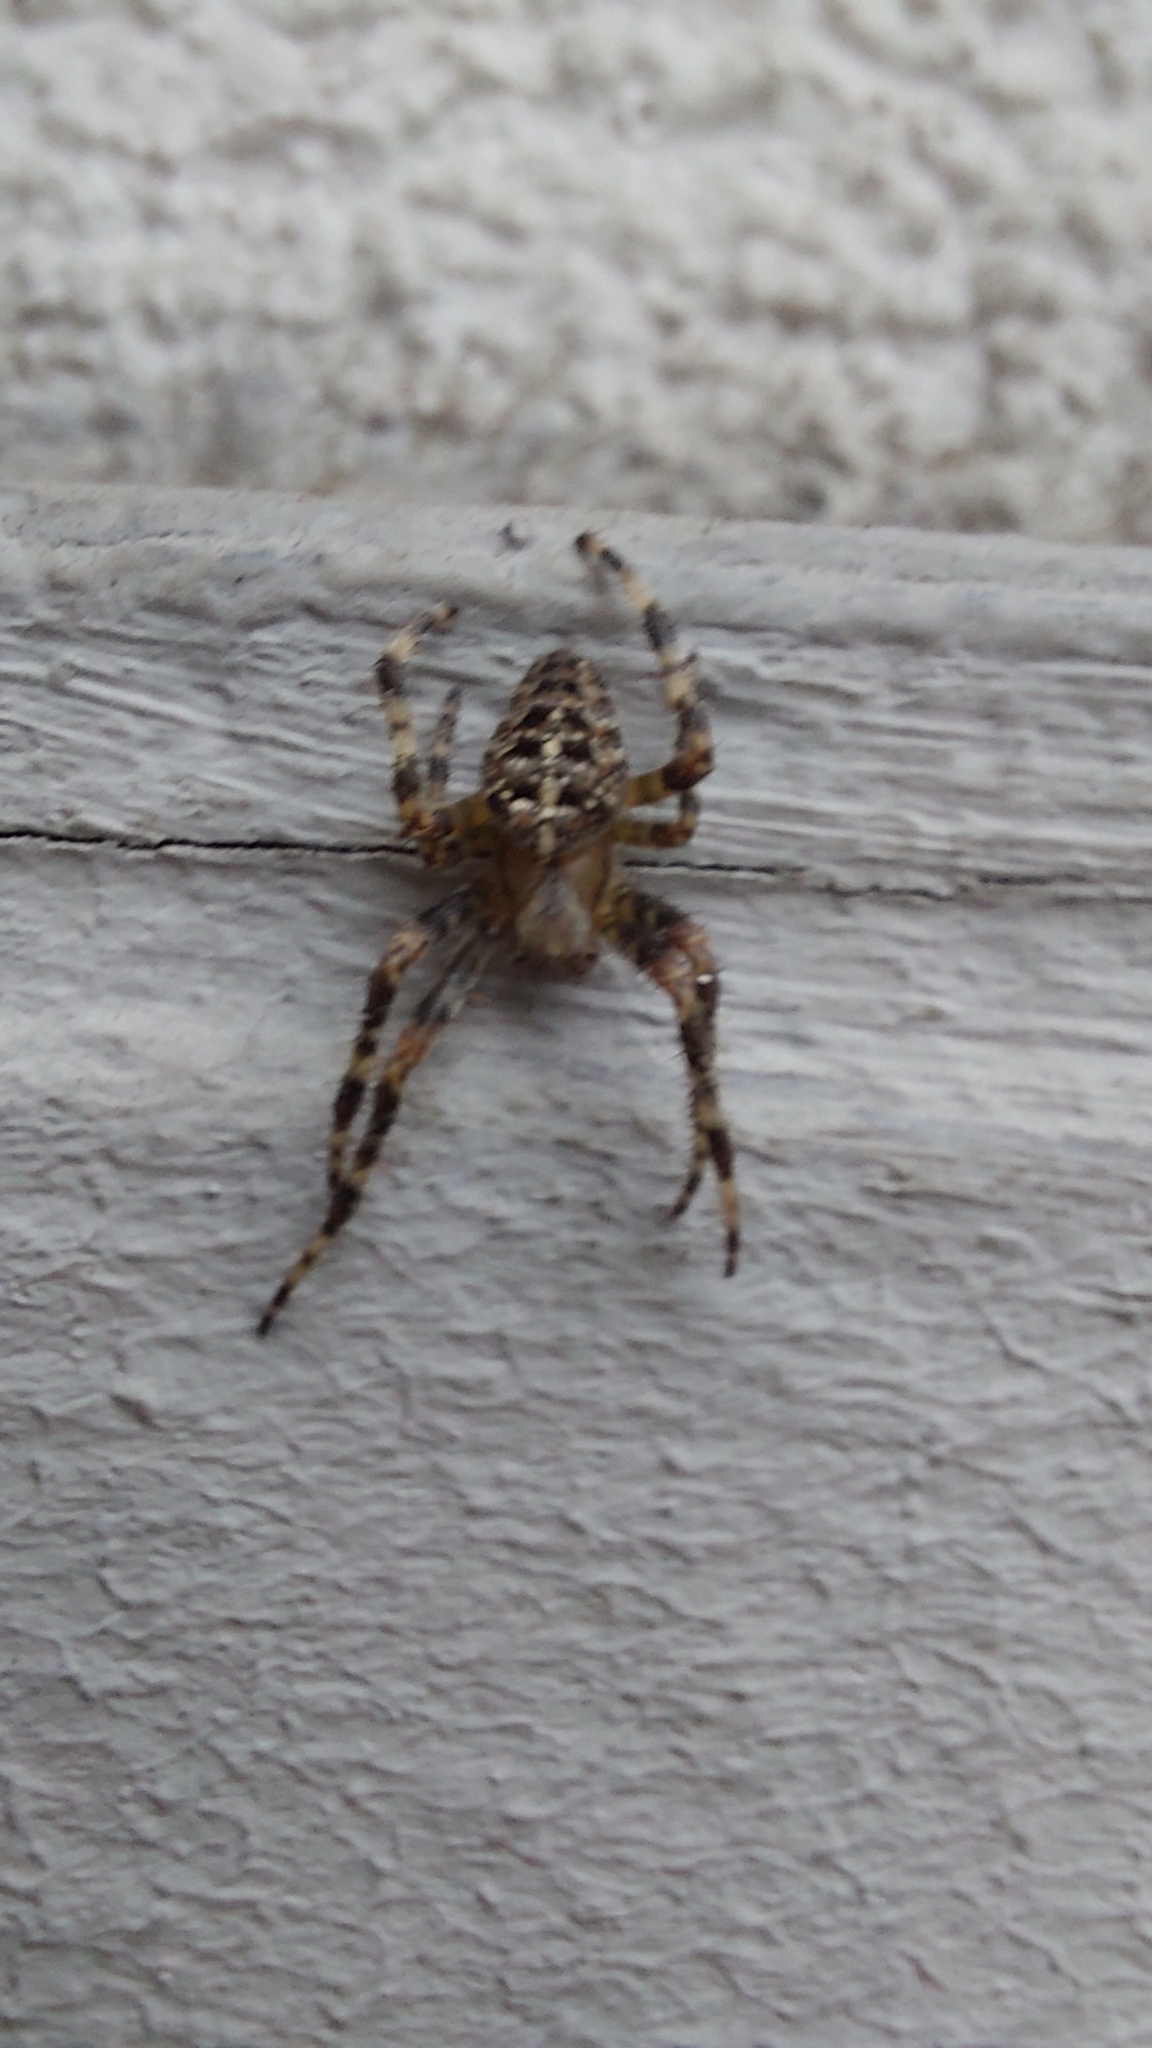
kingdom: Animalia
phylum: Arthropoda
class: Arachnida
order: Araneae
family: Araneidae
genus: Araneus
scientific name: Araneus diadematus
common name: Cross orbweaver
